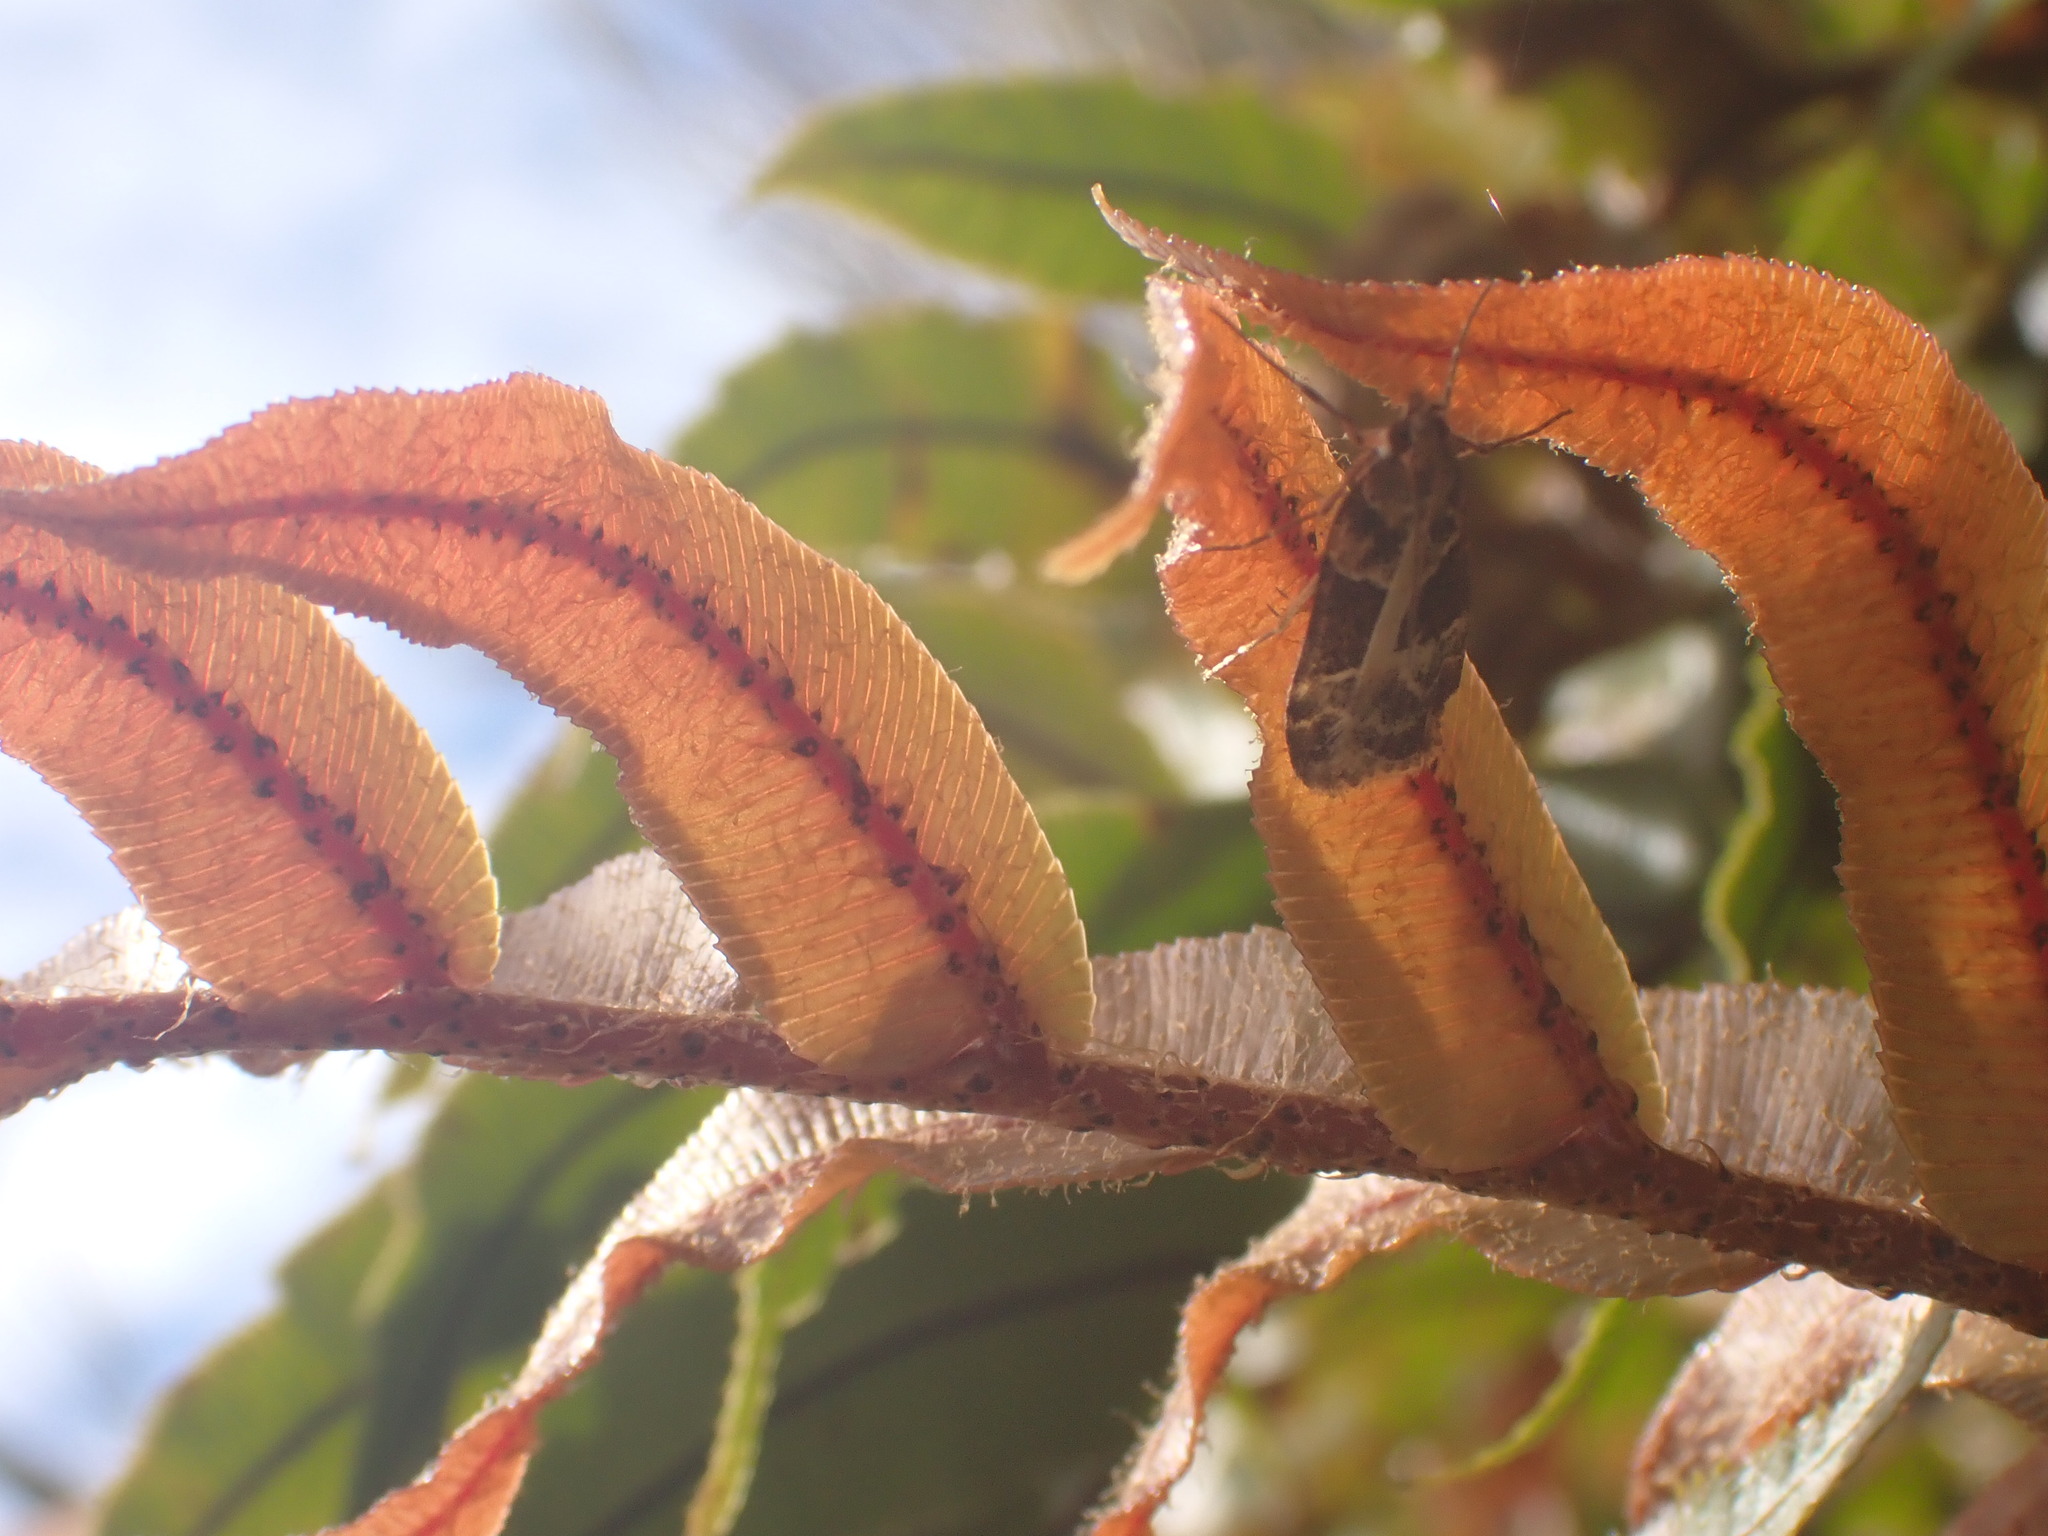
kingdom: Animalia
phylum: Arthropoda
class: Insecta
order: Lepidoptera
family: Crambidae
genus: Eudonia
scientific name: Eudonia melanaegis
